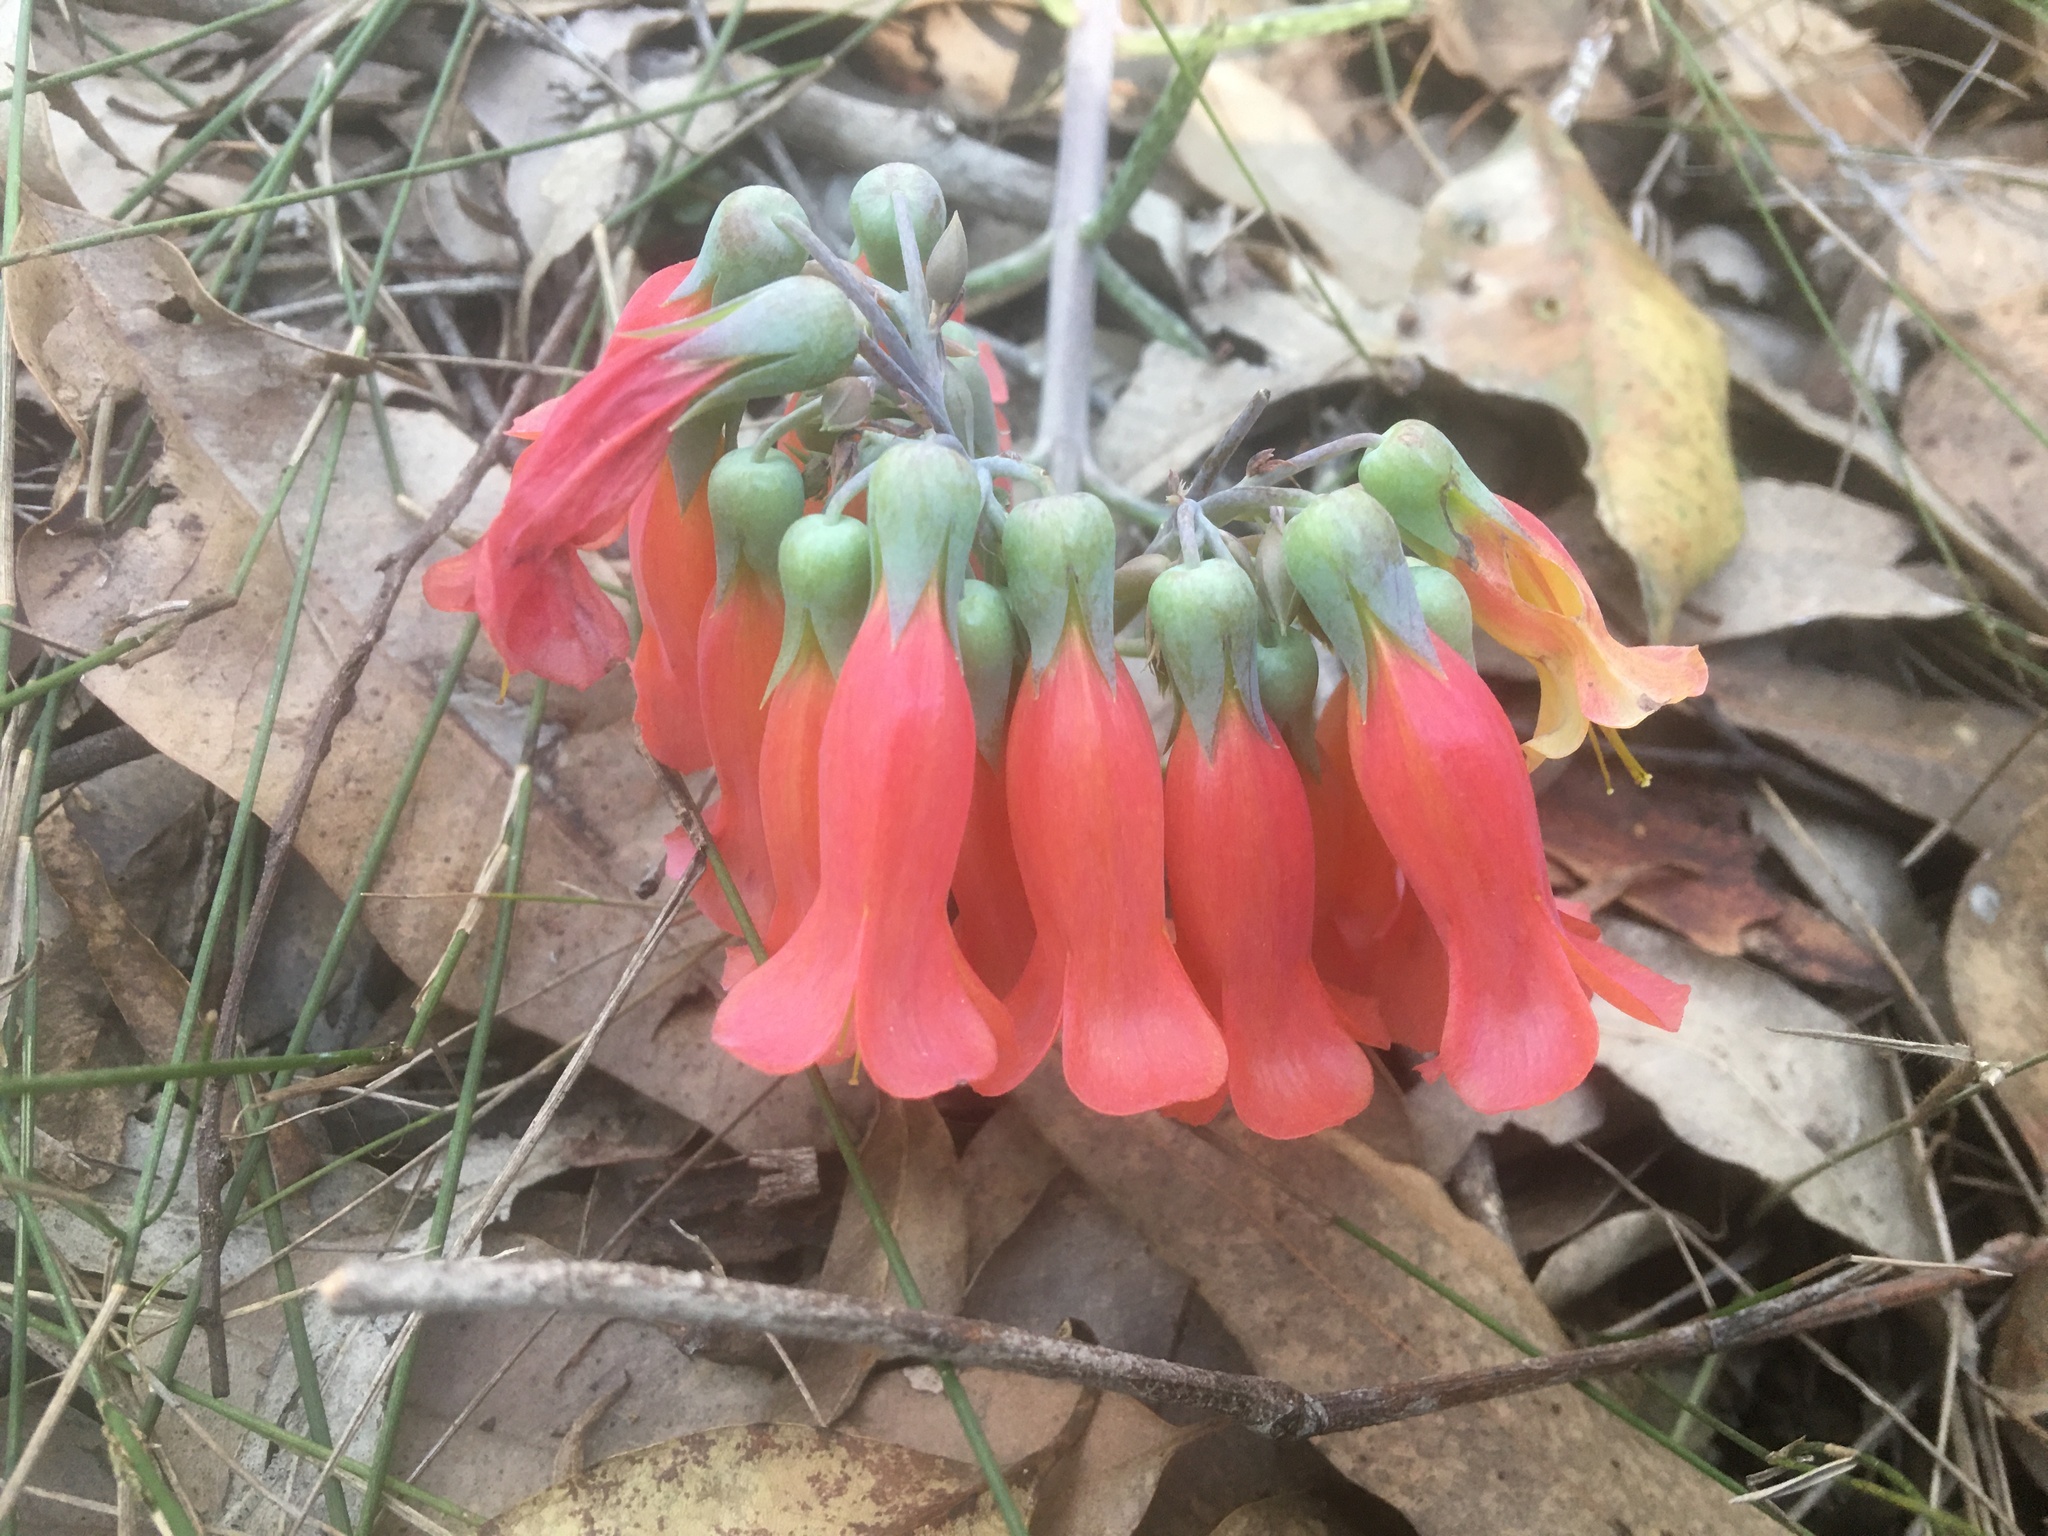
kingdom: Plantae
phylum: Tracheophyta
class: Magnoliopsida
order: Saxifragales
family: Crassulaceae
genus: Kalanchoe
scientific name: Kalanchoe delagoensis
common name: Chandelier plant
